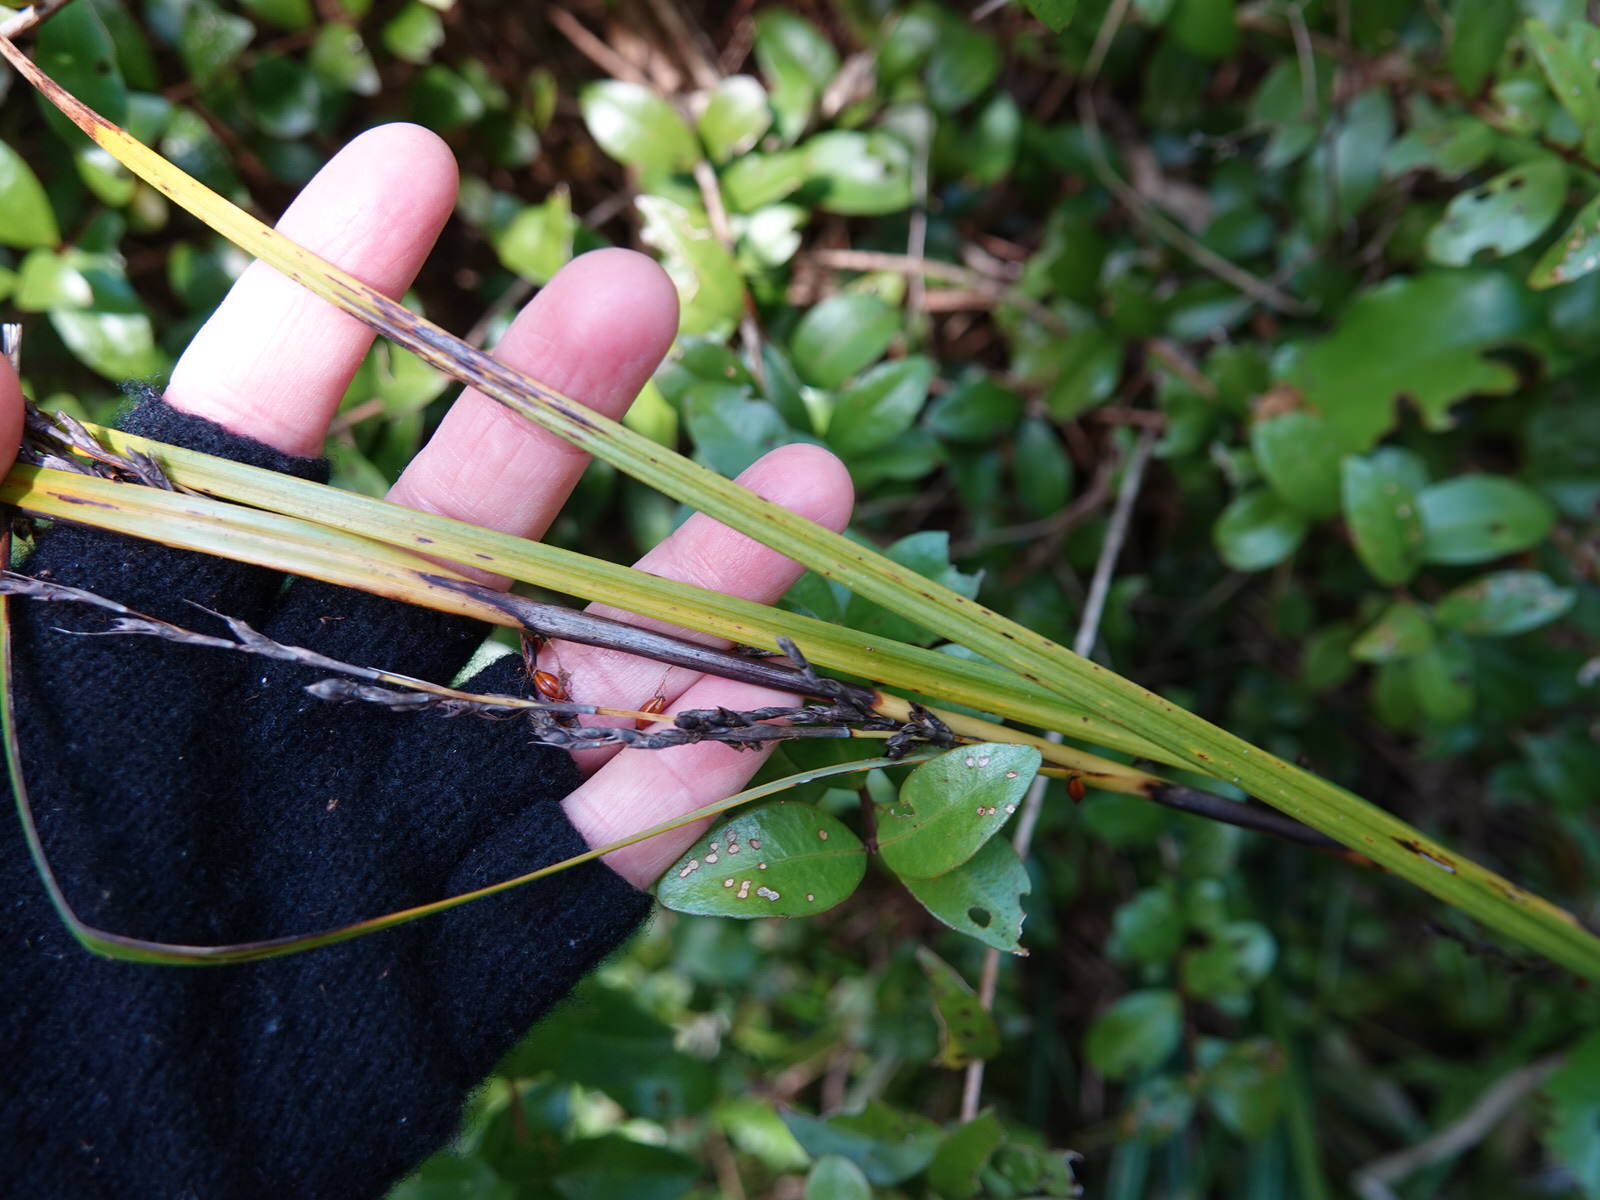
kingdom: Plantae
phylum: Tracheophyta
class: Liliopsida
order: Poales
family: Cyperaceae
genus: Gahnia
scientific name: Gahnia pauciflora
